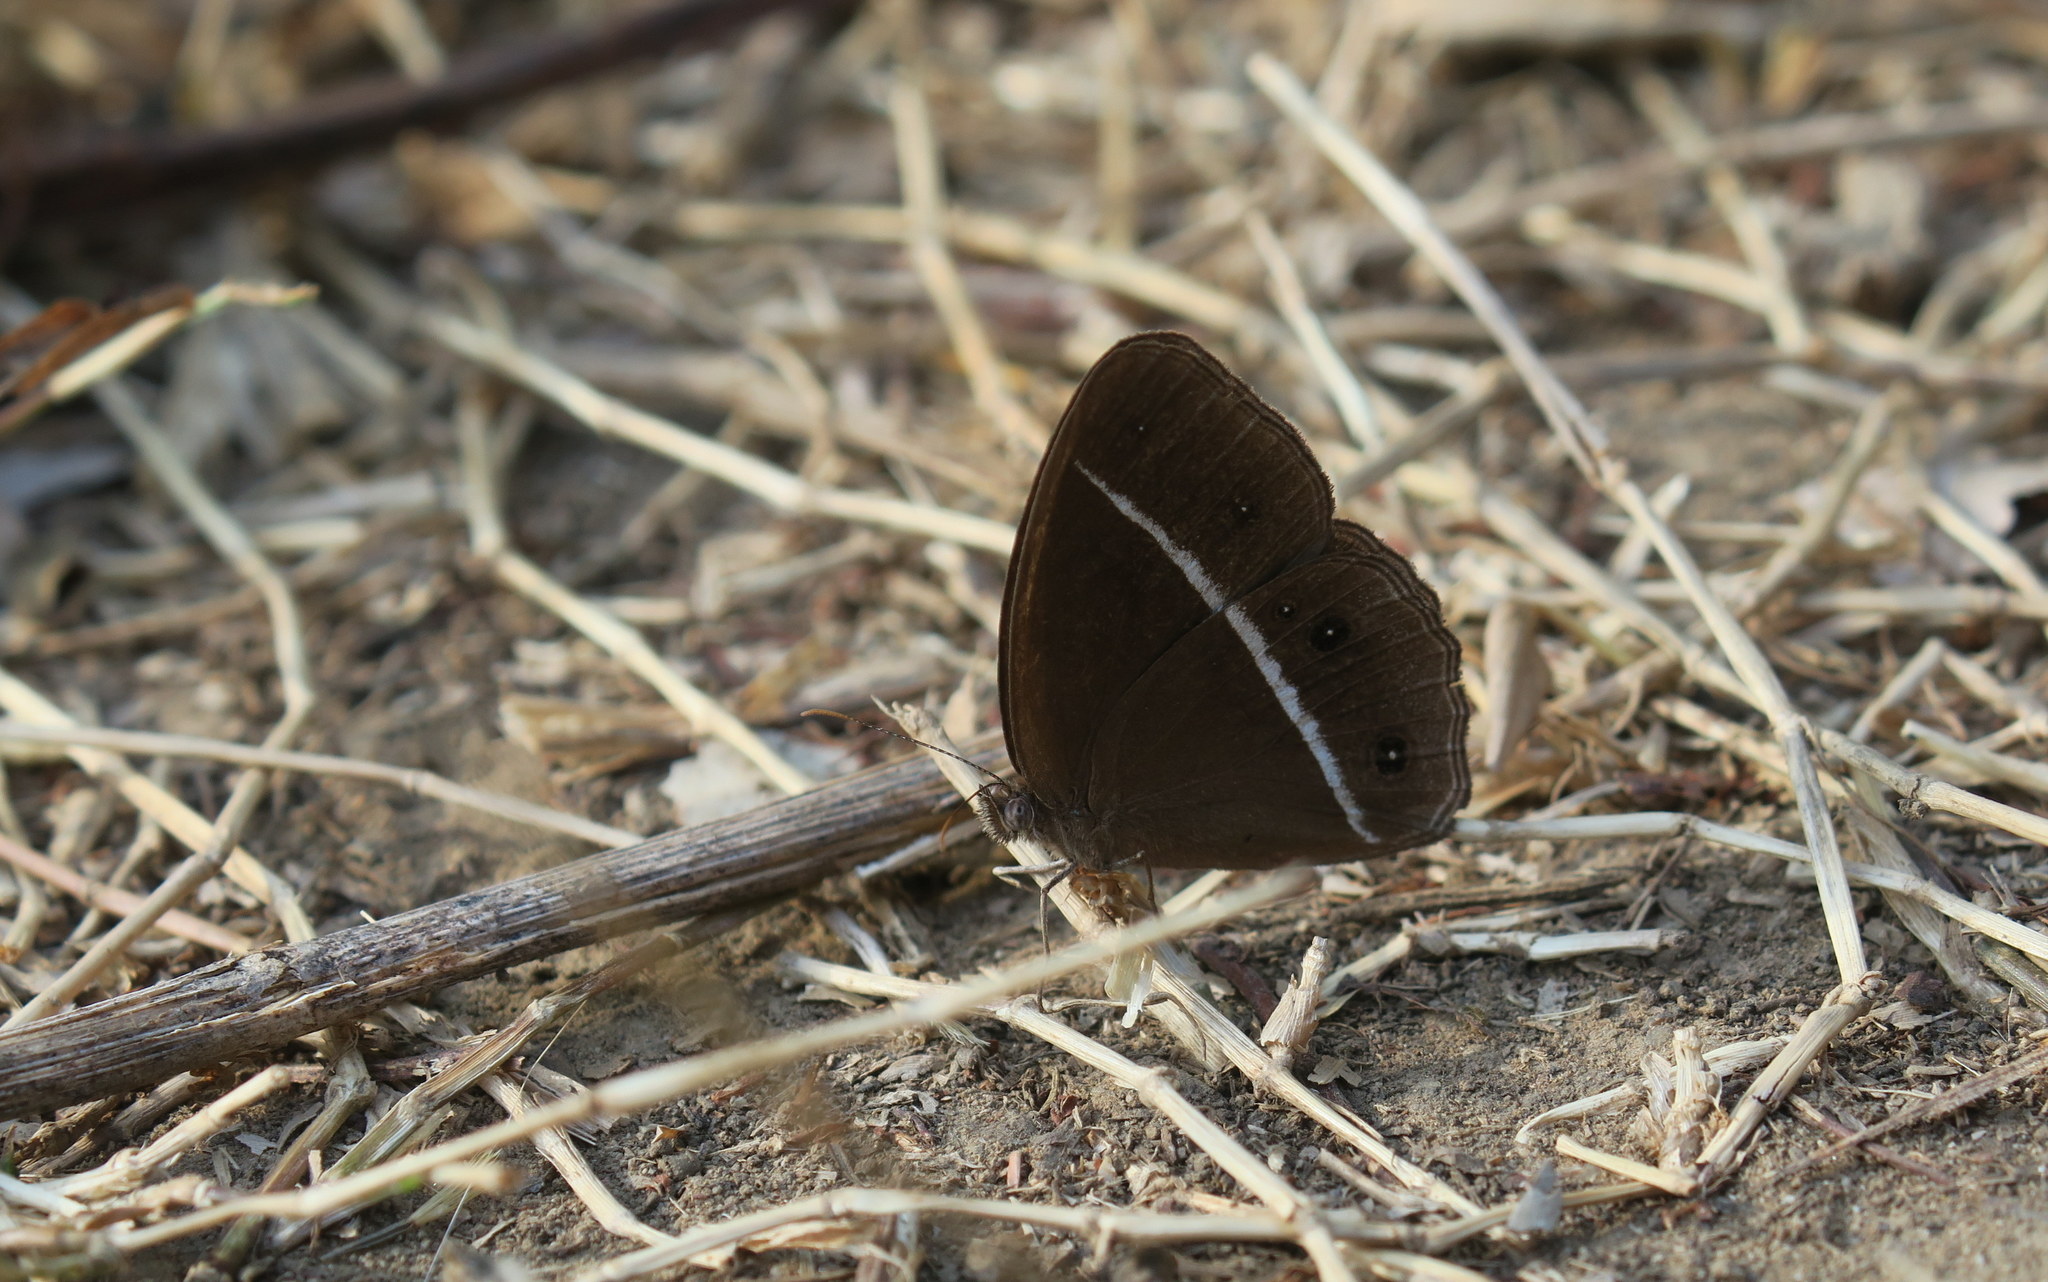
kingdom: Animalia
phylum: Arthropoda
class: Insecta
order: Lepidoptera
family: Nymphalidae
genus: Orsotriaena
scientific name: Orsotriaena medus
